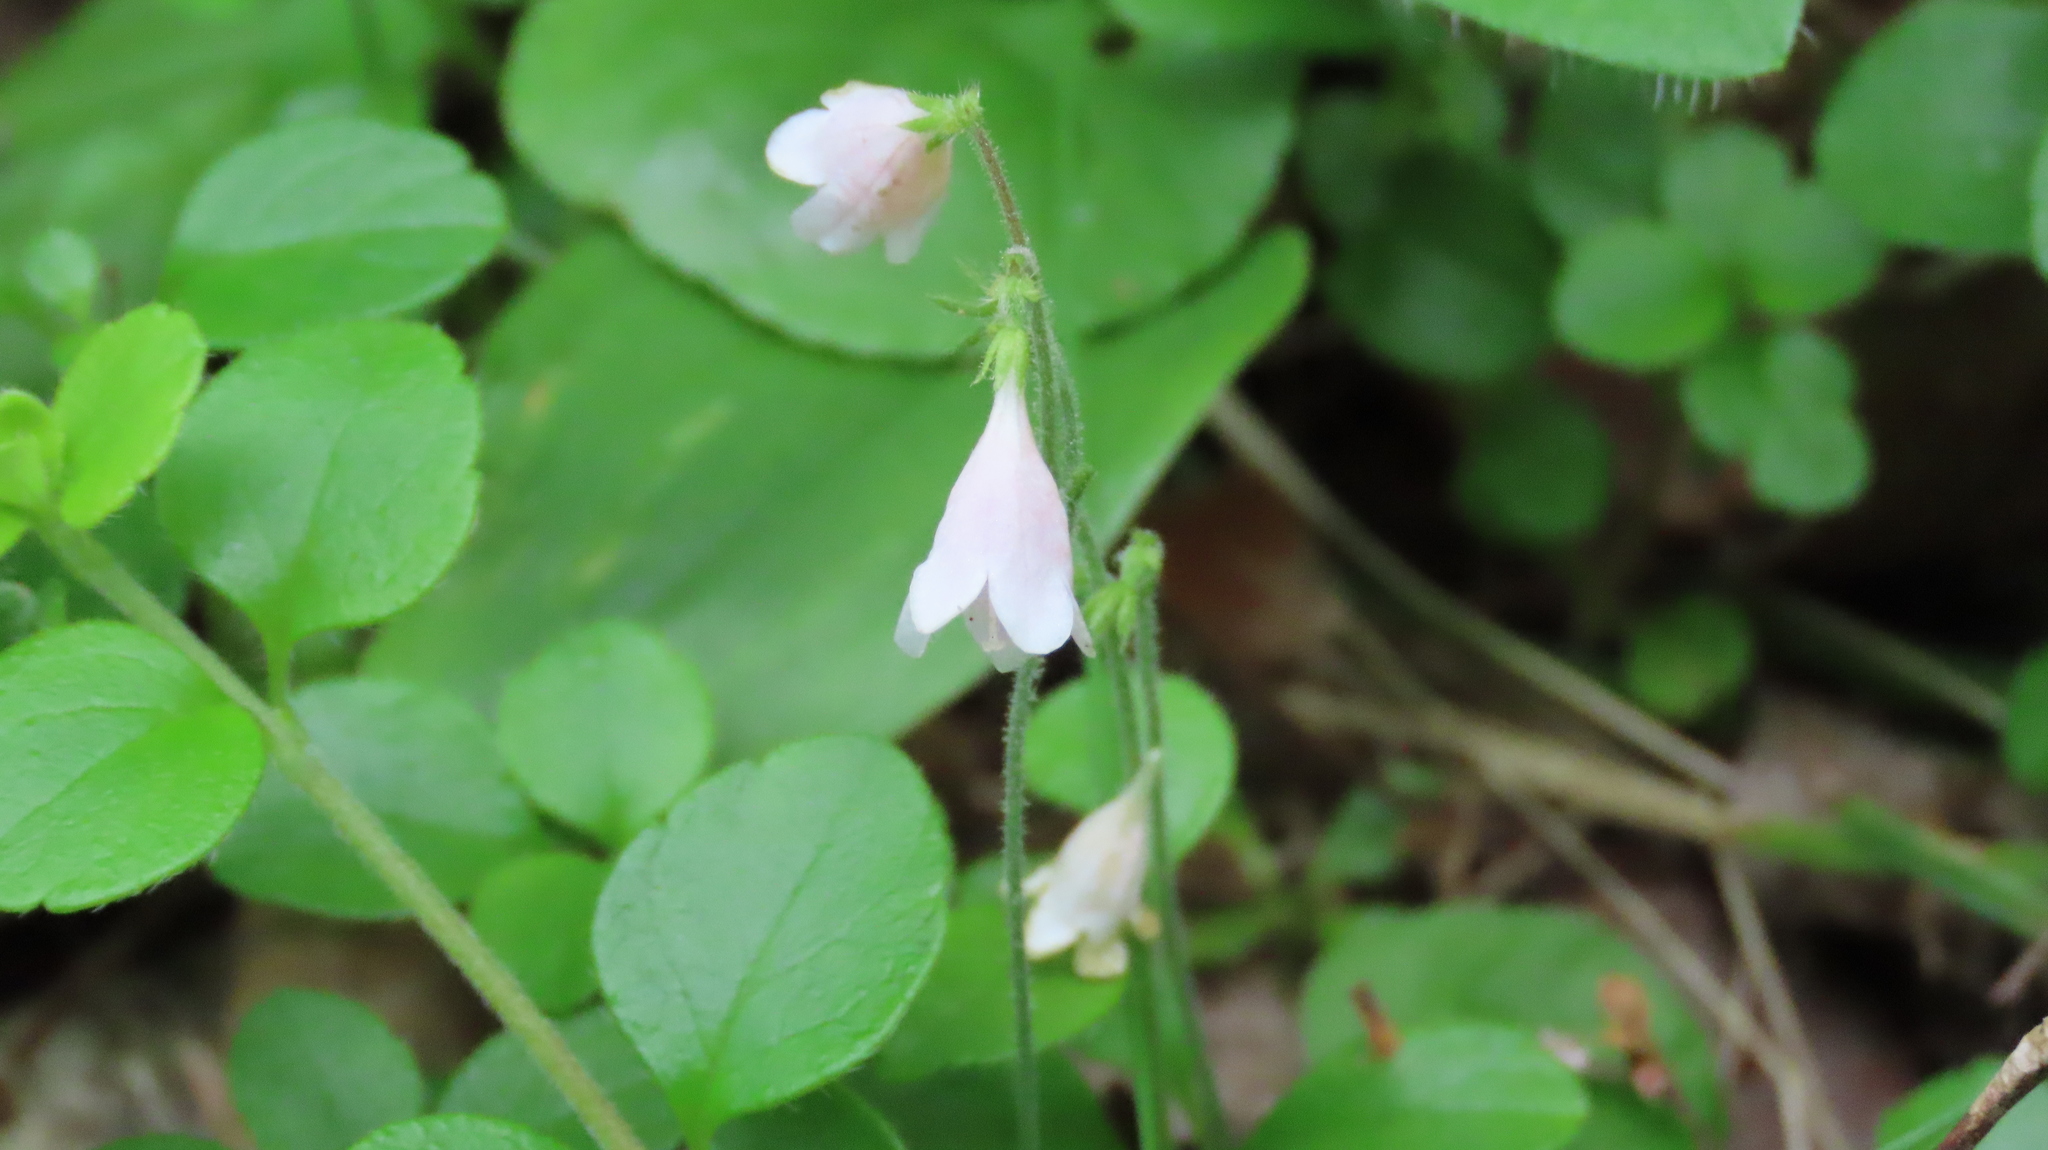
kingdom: Plantae
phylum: Tracheophyta
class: Magnoliopsida
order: Dipsacales
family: Caprifoliaceae
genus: Linnaea
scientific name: Linnaea borealis
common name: Twinflower
